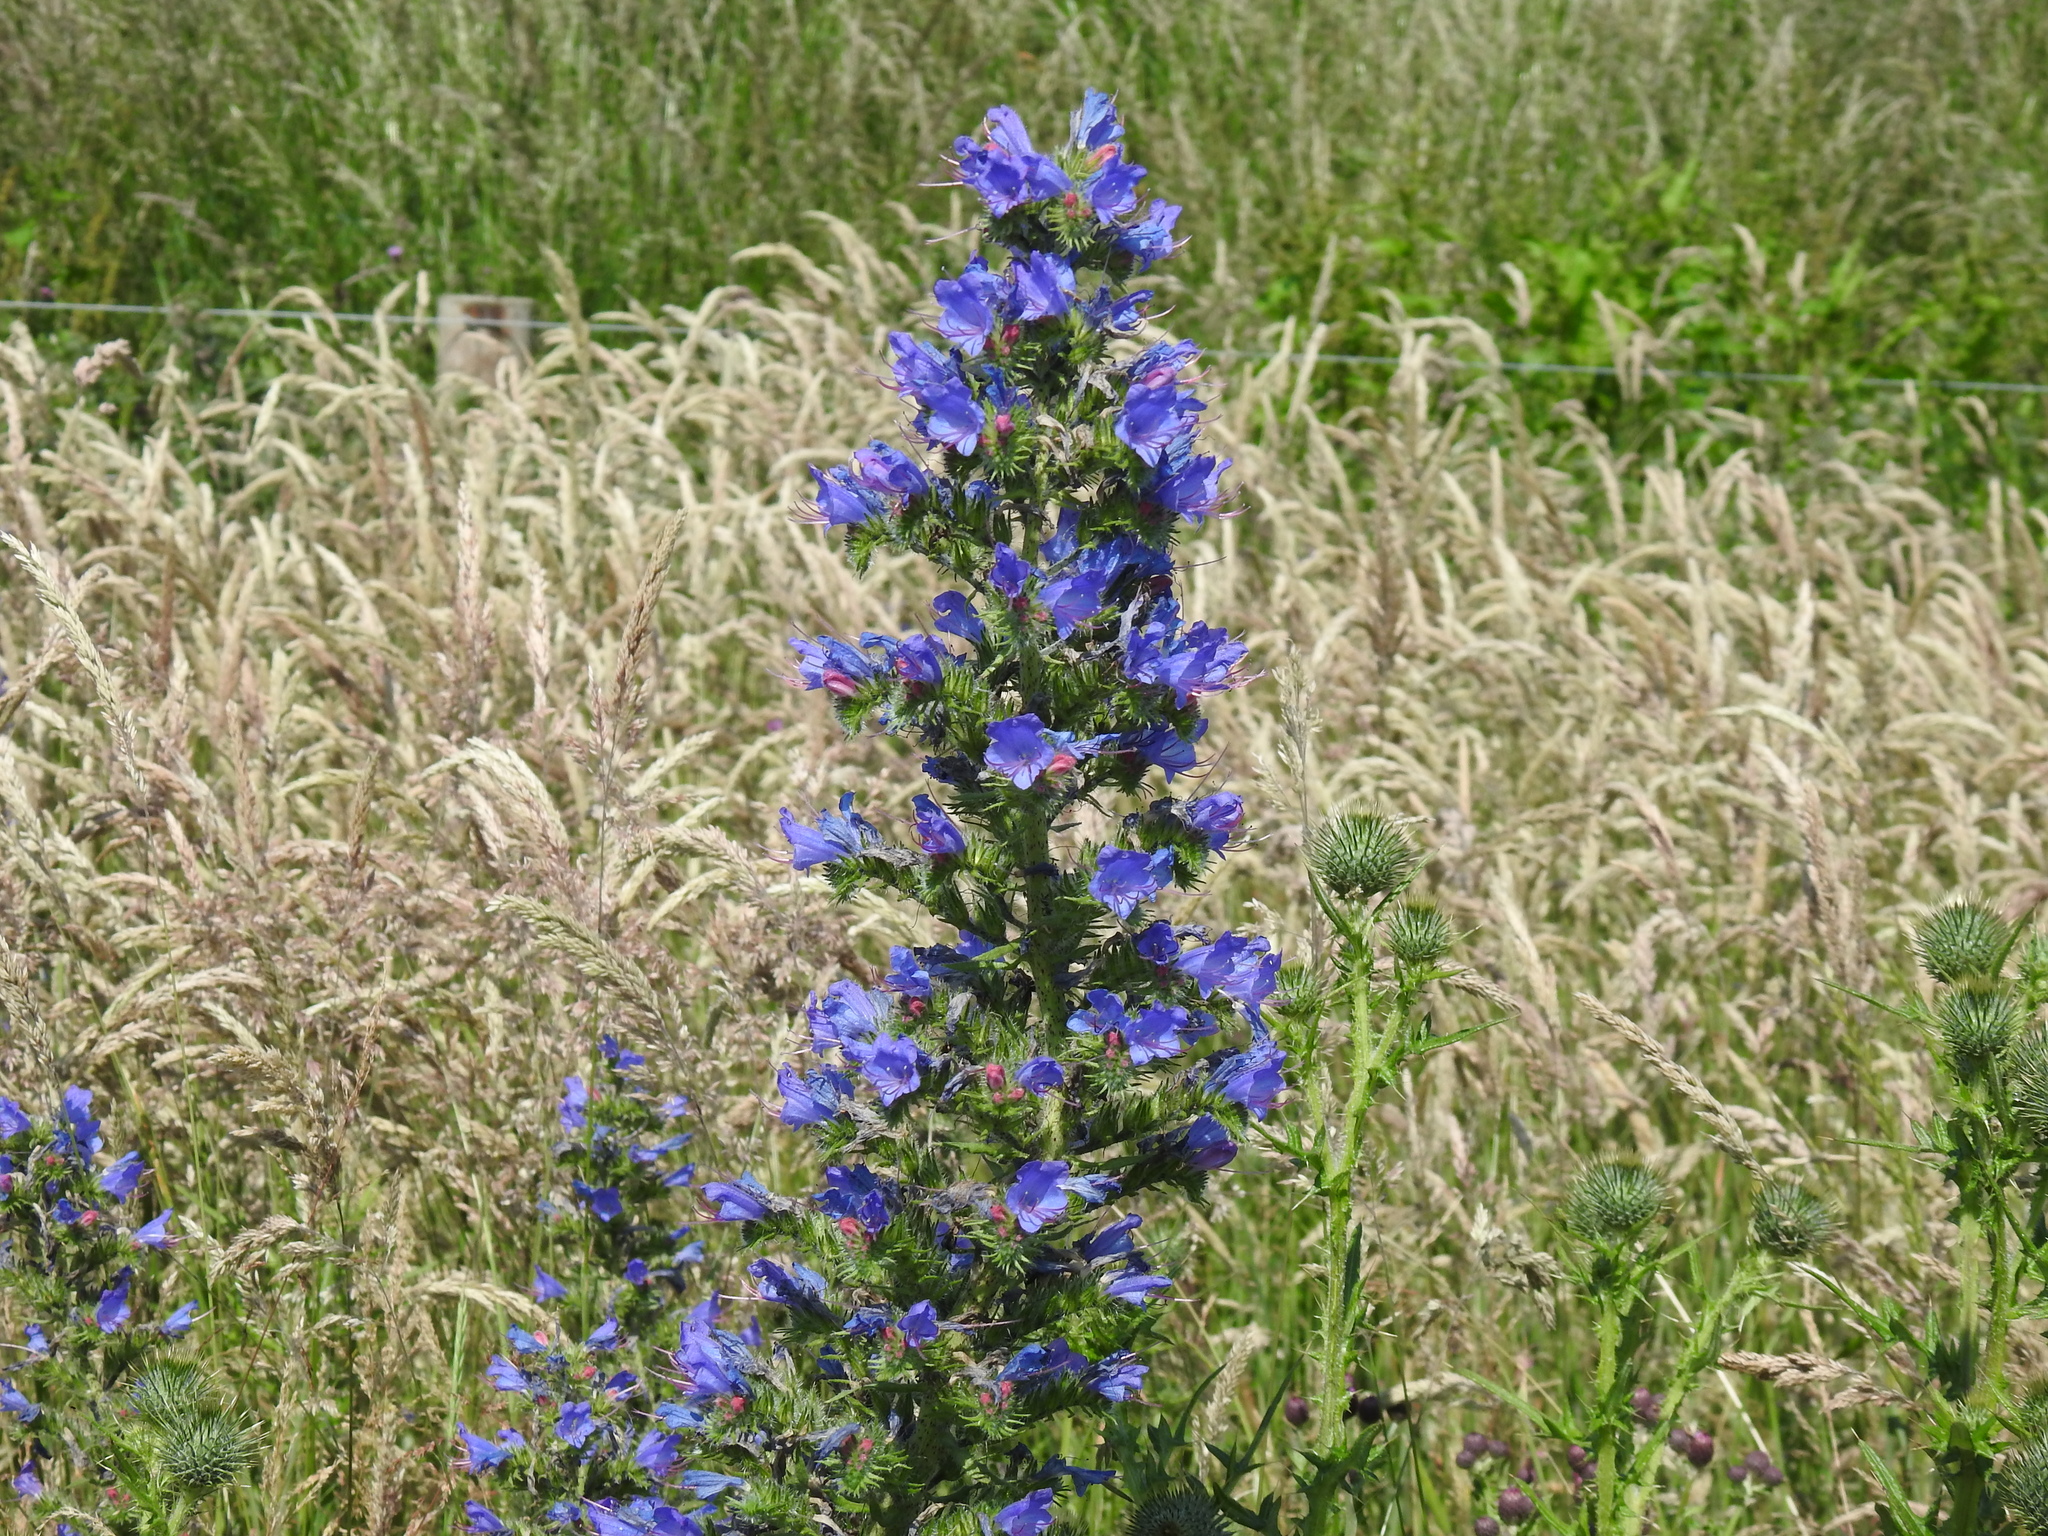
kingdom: Plantae
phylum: Tracheophyta
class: Magnoliopsida
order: Boraginales
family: Boraginaceae
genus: Echium
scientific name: Echium vulgare
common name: Common viper's bugloss
